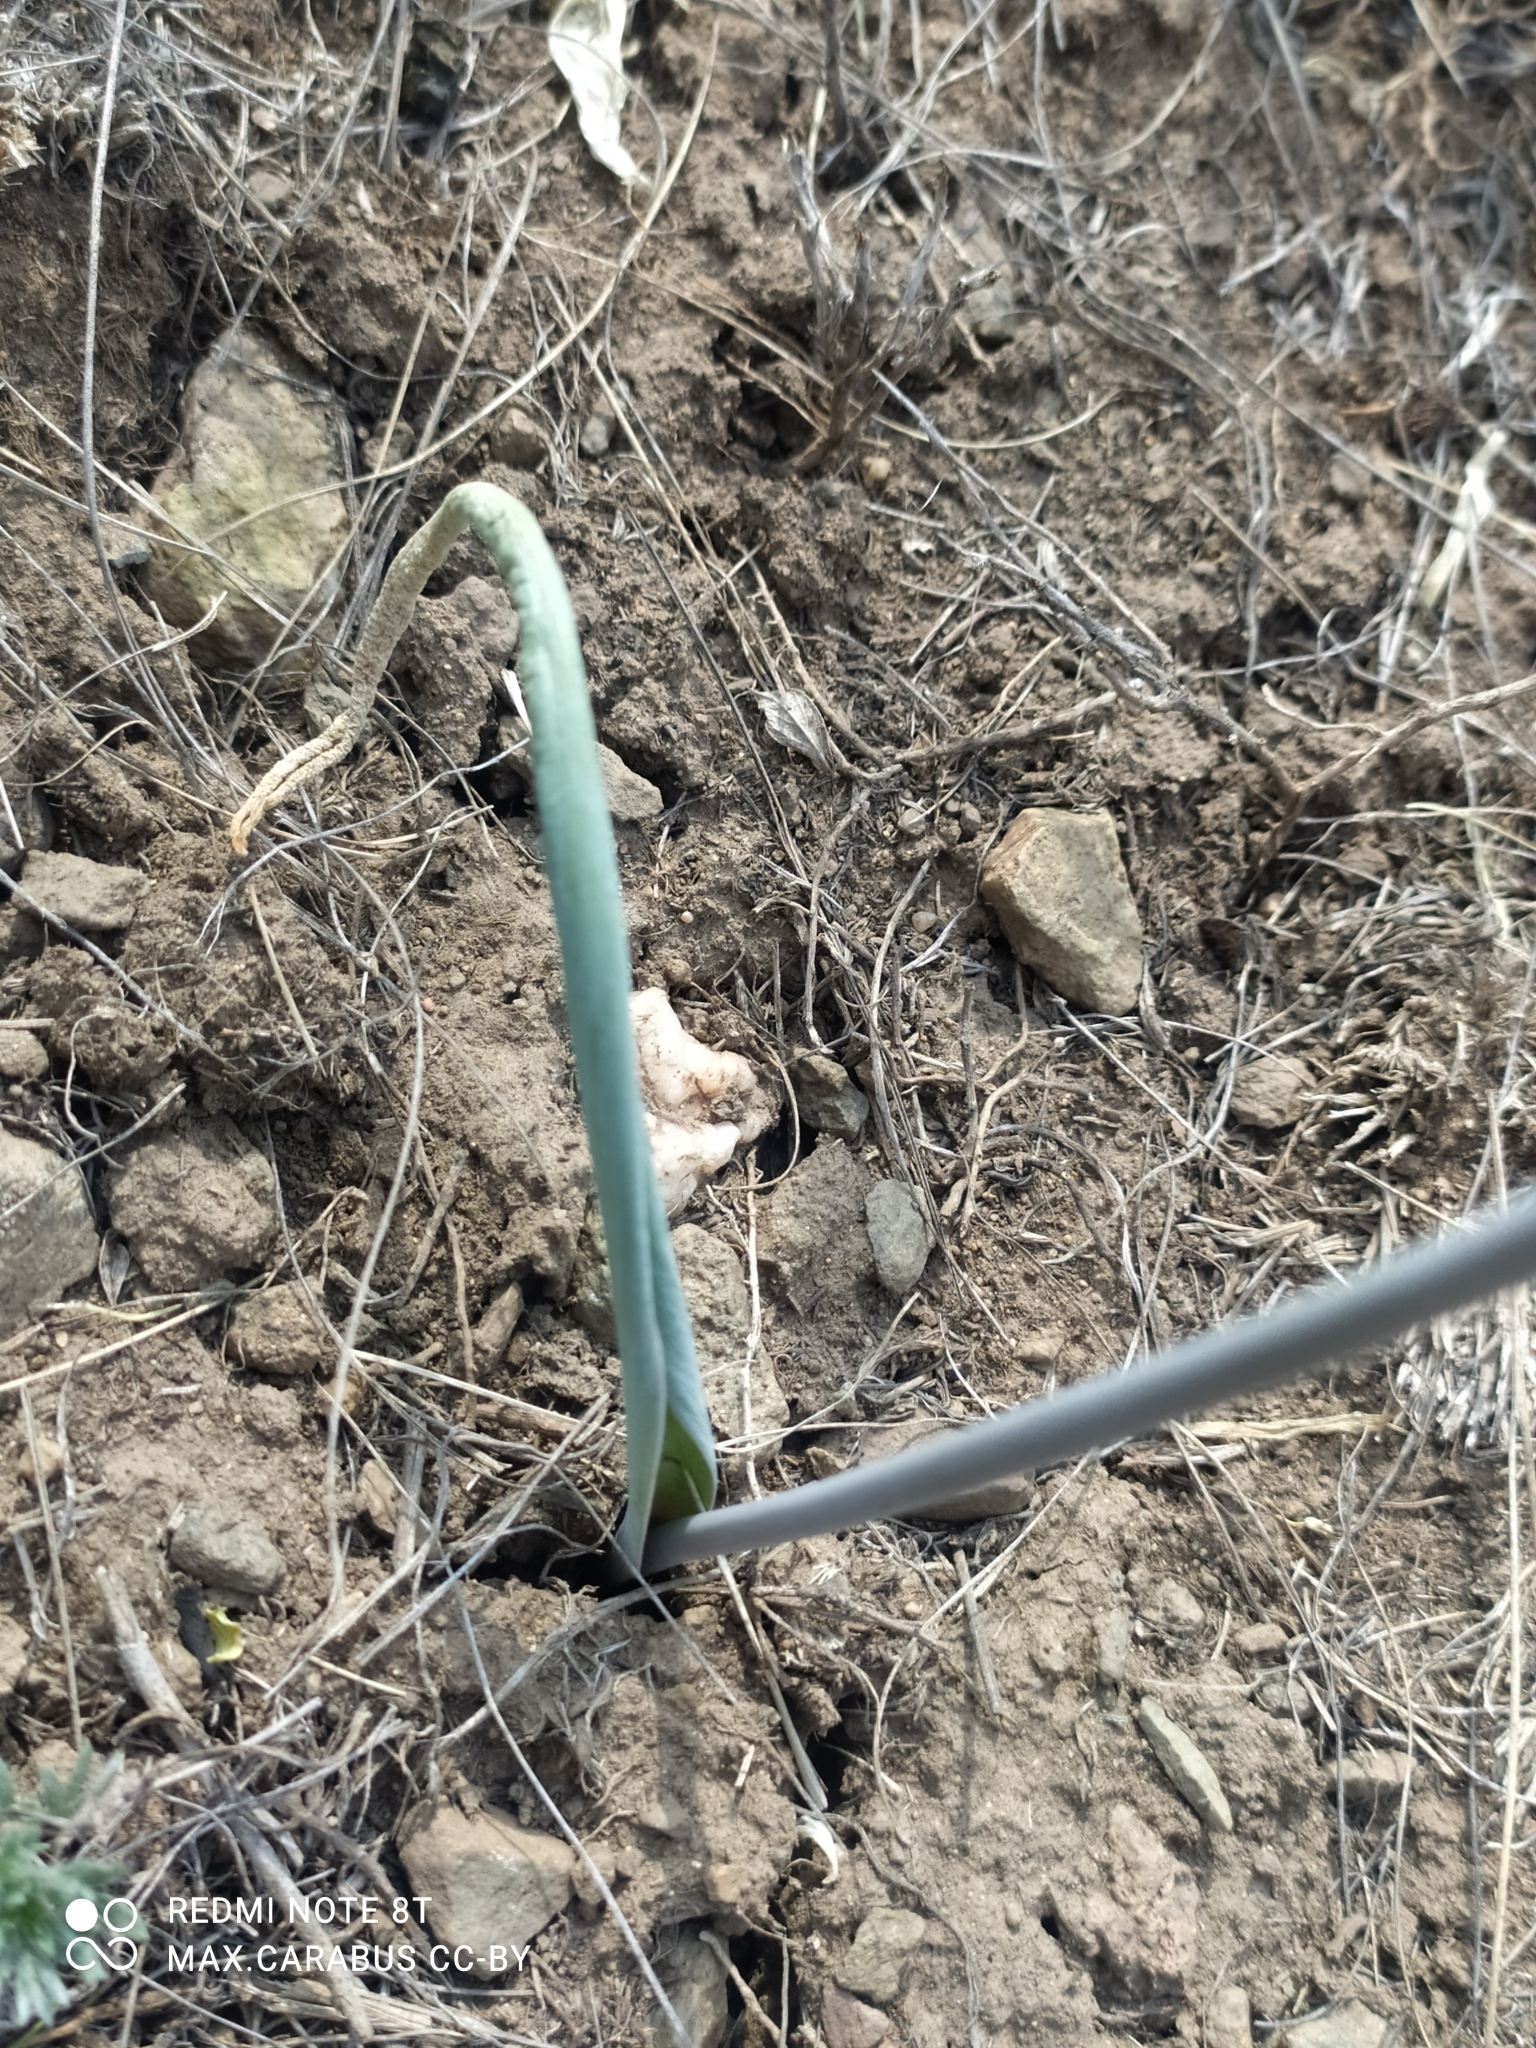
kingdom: Plantae
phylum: Tracheophyta
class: Liliopsida
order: Asparagales
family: Amaryllidaceae
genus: Allium
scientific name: Allium tulipifolium
